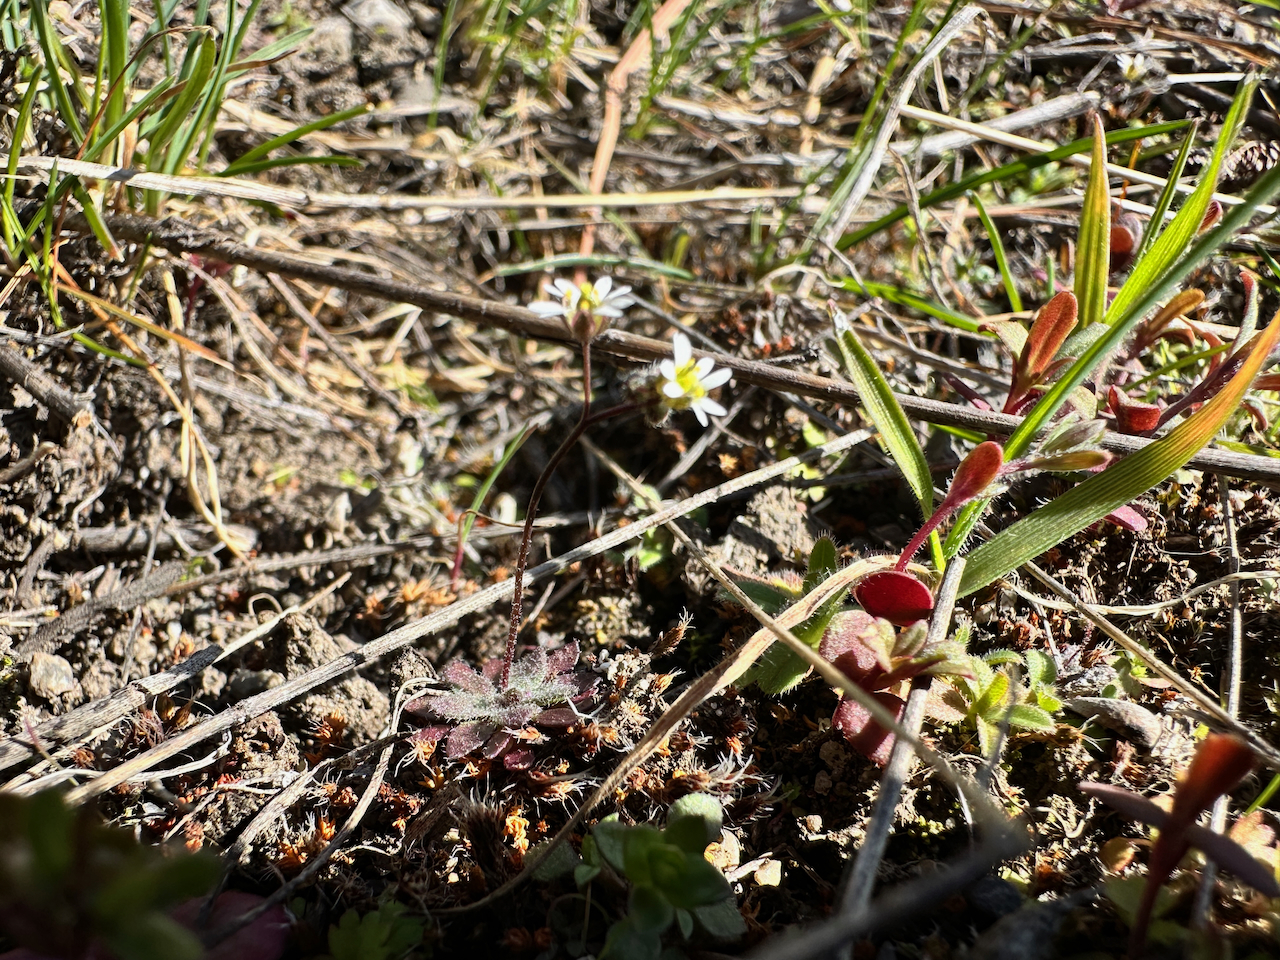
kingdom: Plantae
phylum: Tracheophyta
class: Magnoliopsida
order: Brassicales
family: Brassicaceae
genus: Draba
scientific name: Draba verna
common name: Spring draba
